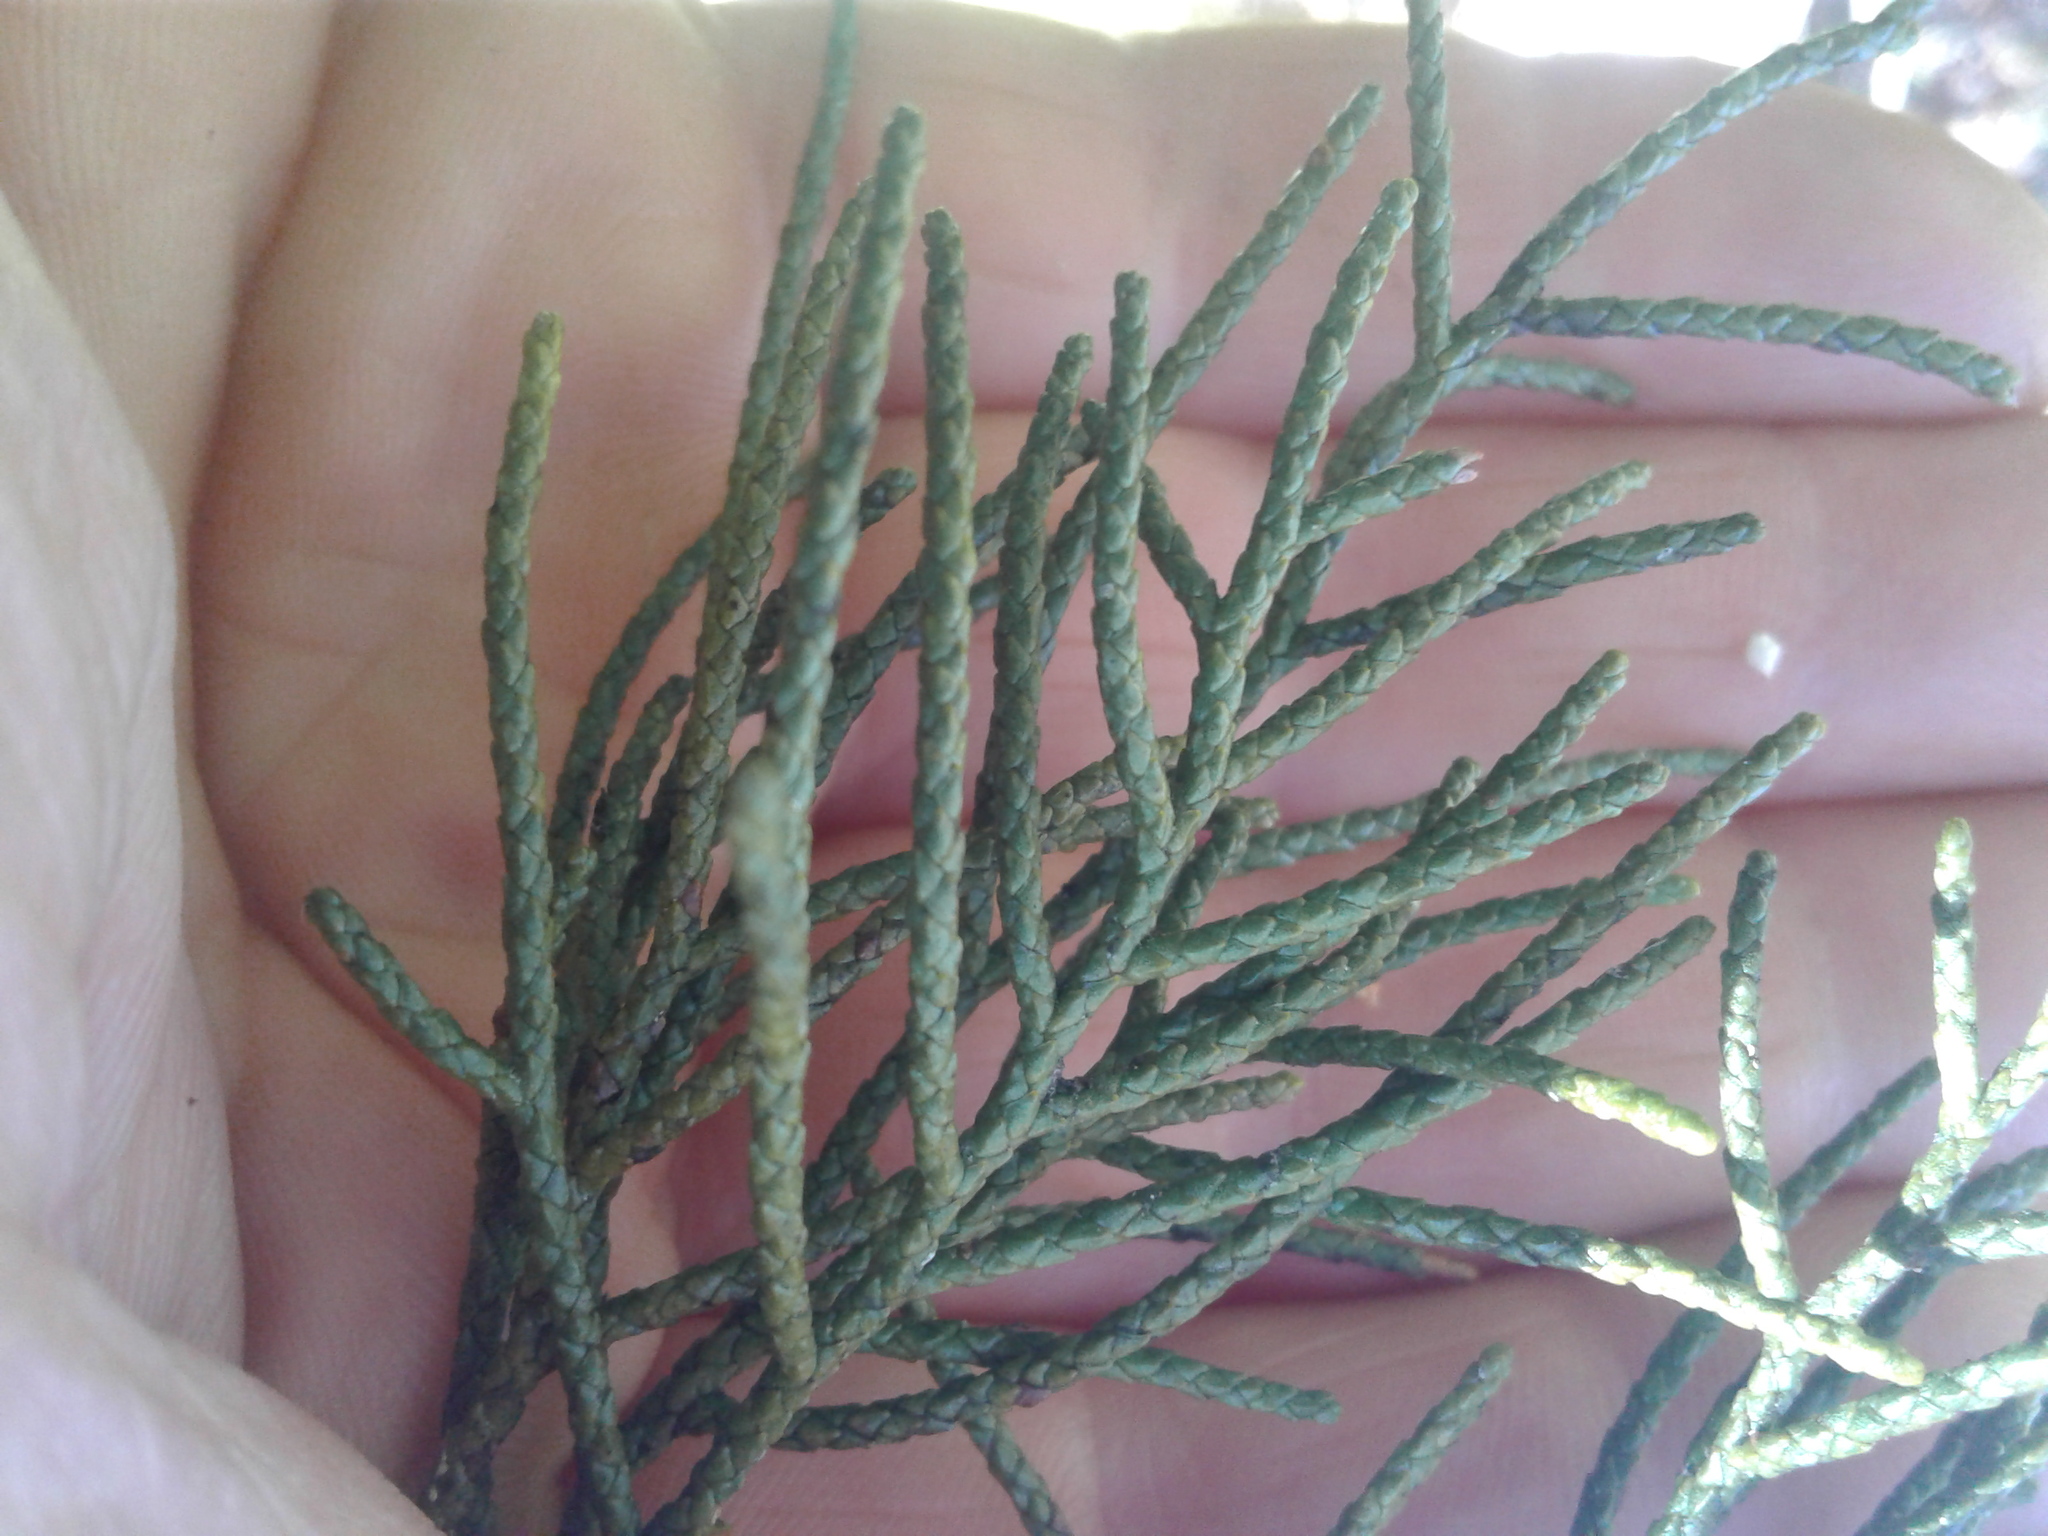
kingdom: Plantae
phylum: Tracheophyta
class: Pinopsida
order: Pinales
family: Podocarpaceae
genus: Halocarpus
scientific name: Halocarpus biformis
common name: Alpine tarwood
